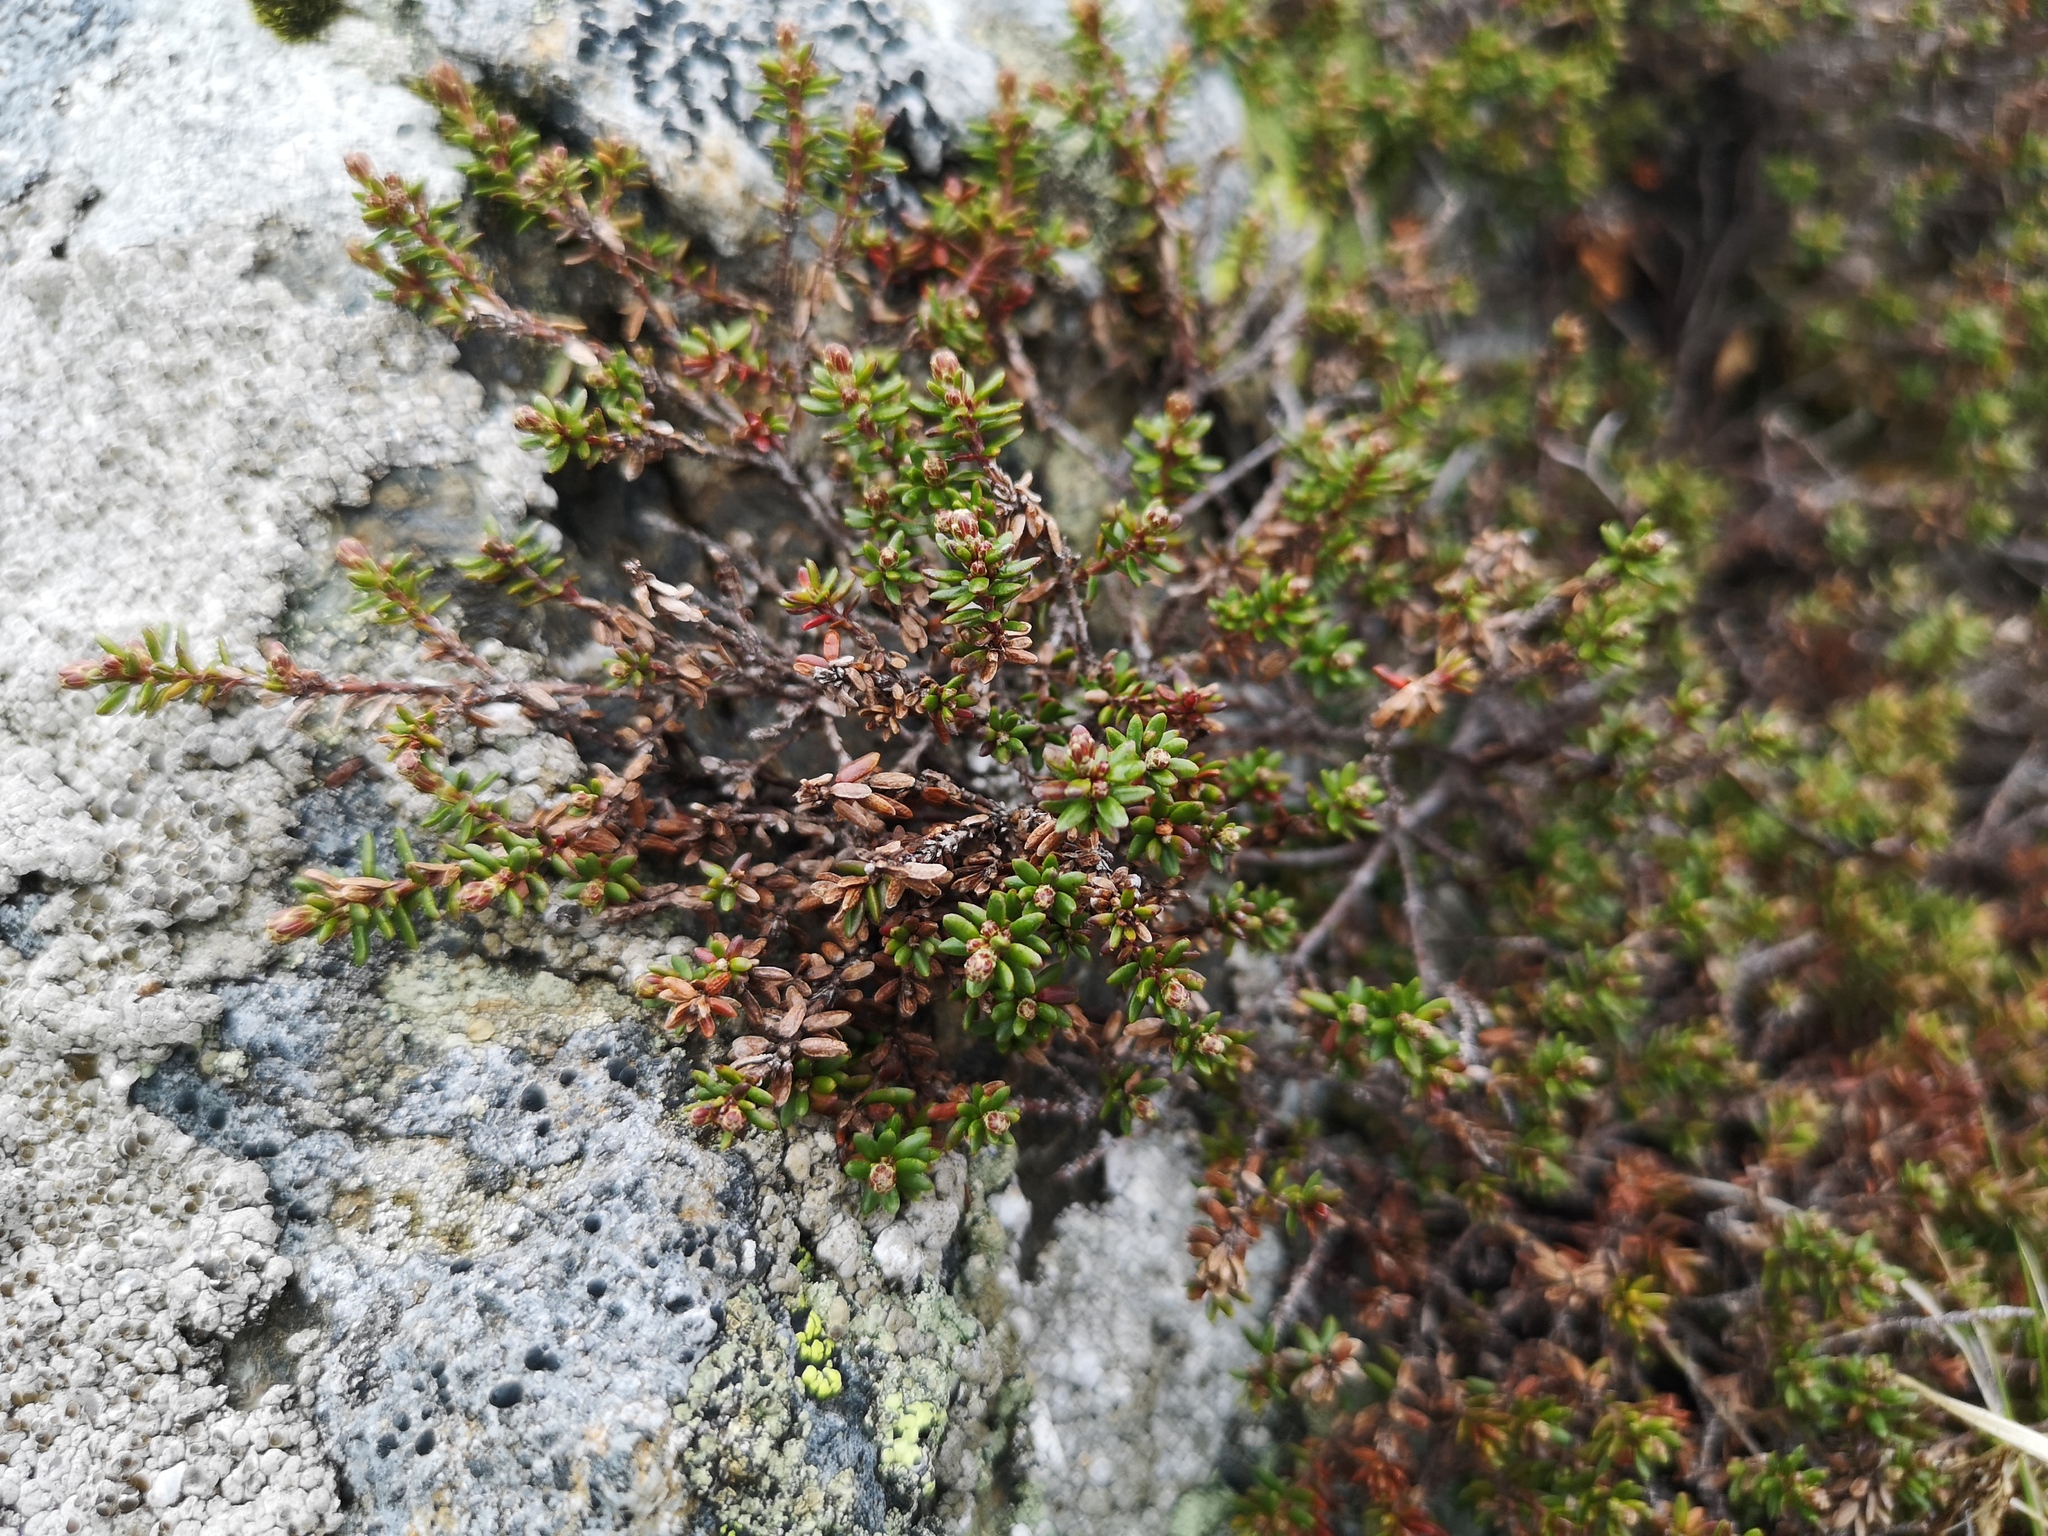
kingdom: Plantae
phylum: Tracheophyta
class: Magnoliopsida
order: Ericales
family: Ericaceae
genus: Empetrum
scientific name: Empetrum nigrum
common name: Black crowberry
